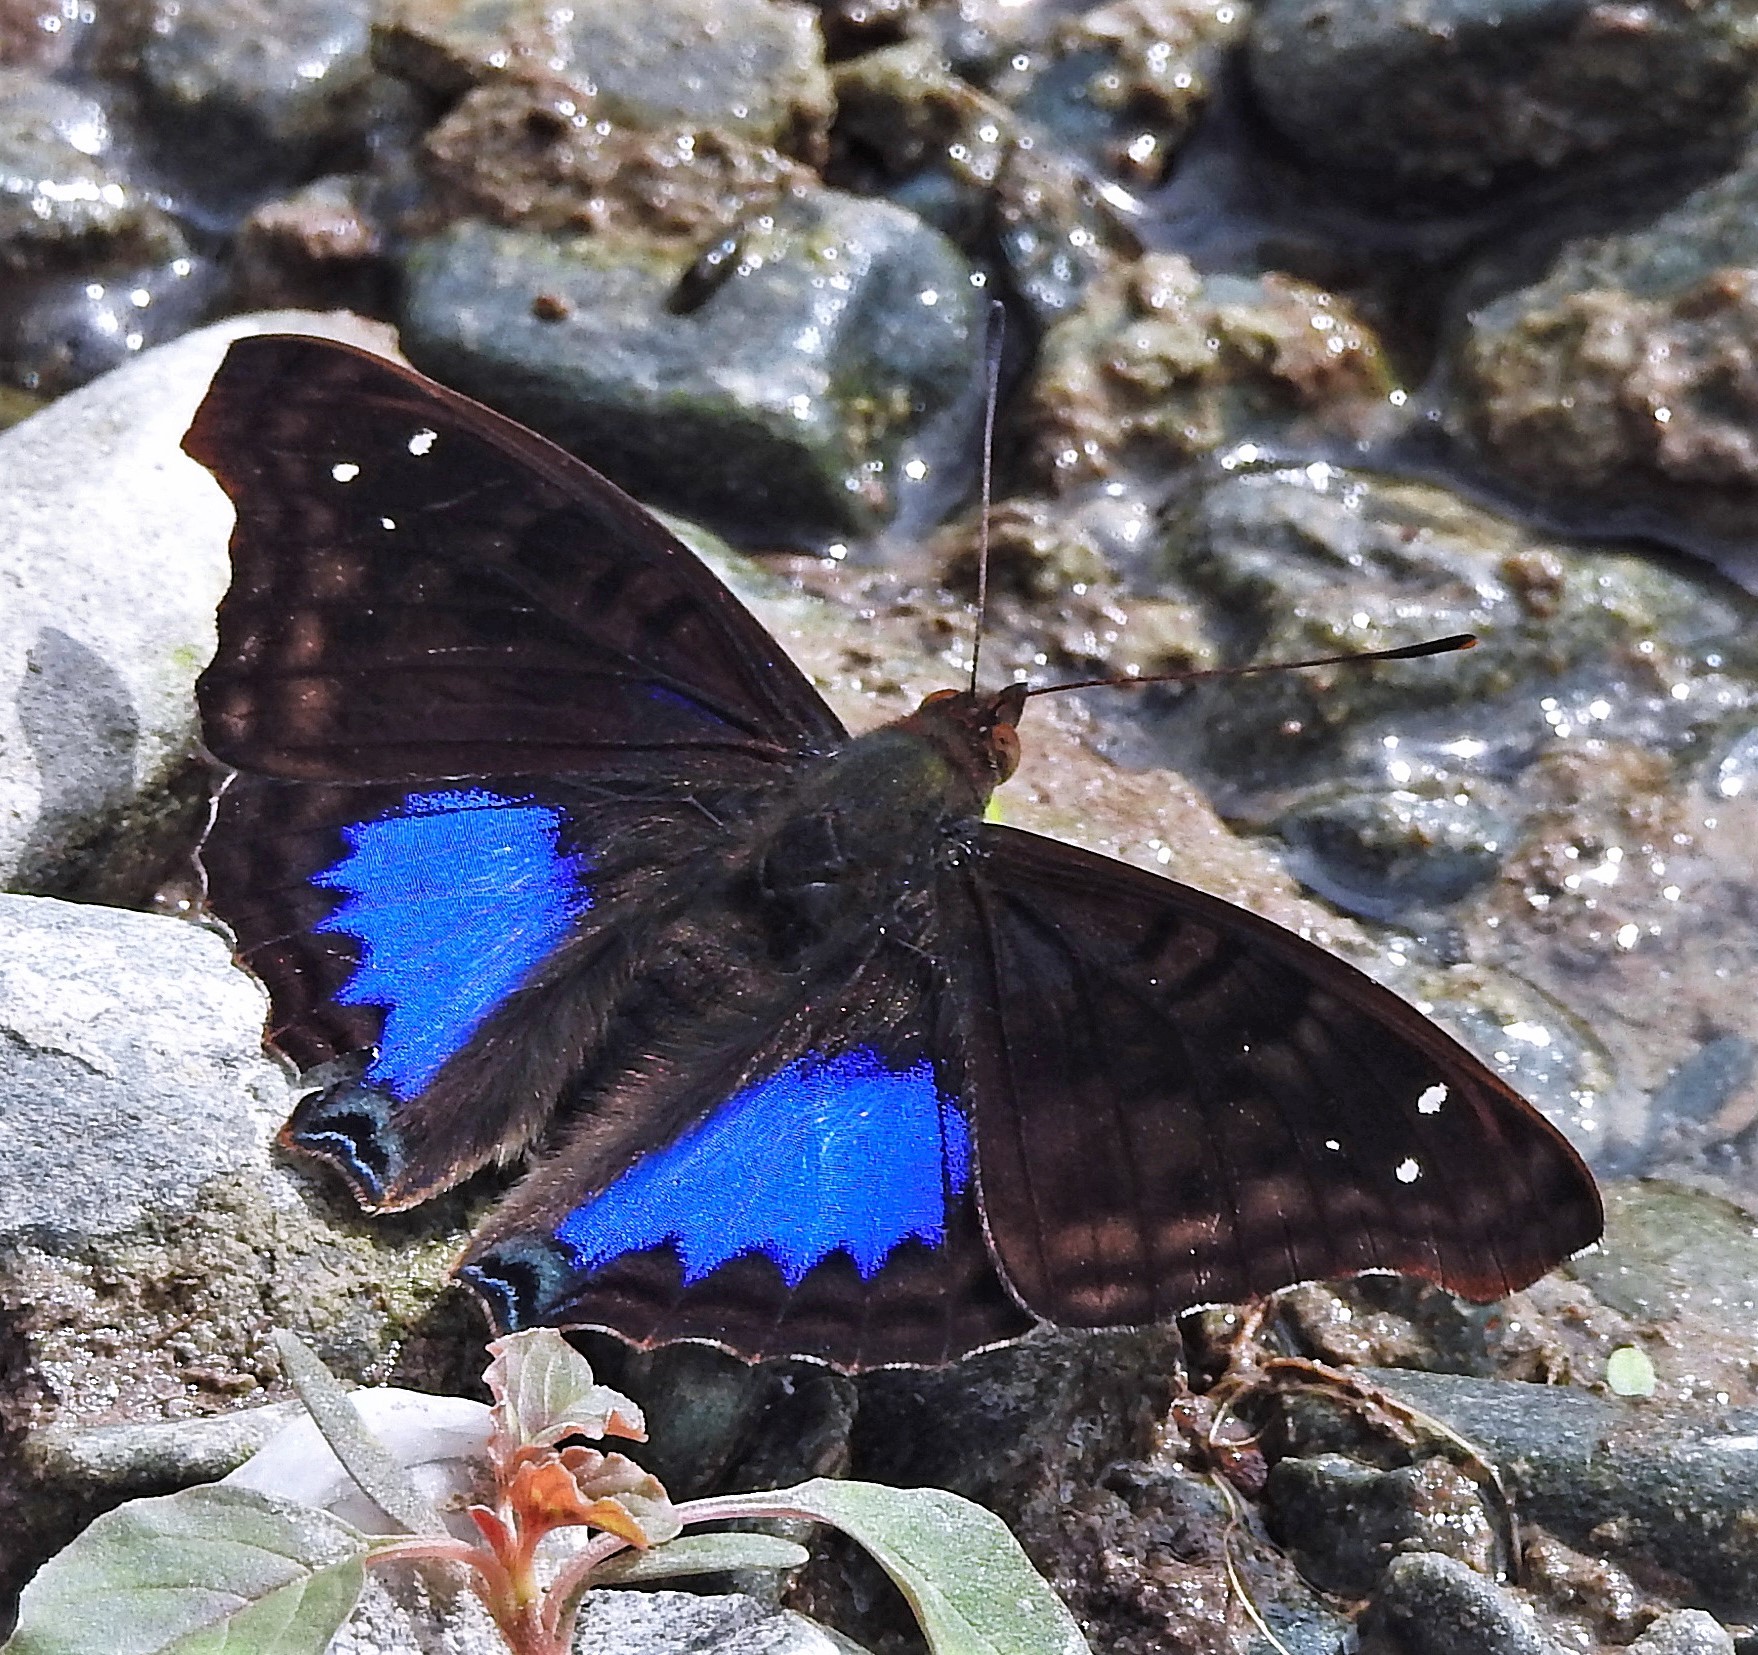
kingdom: Animalia
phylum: Arthropoda
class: Insecta
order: Lepidoptera
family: Nymphalidae
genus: Doxocopa
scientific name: Doxocopa cyane
